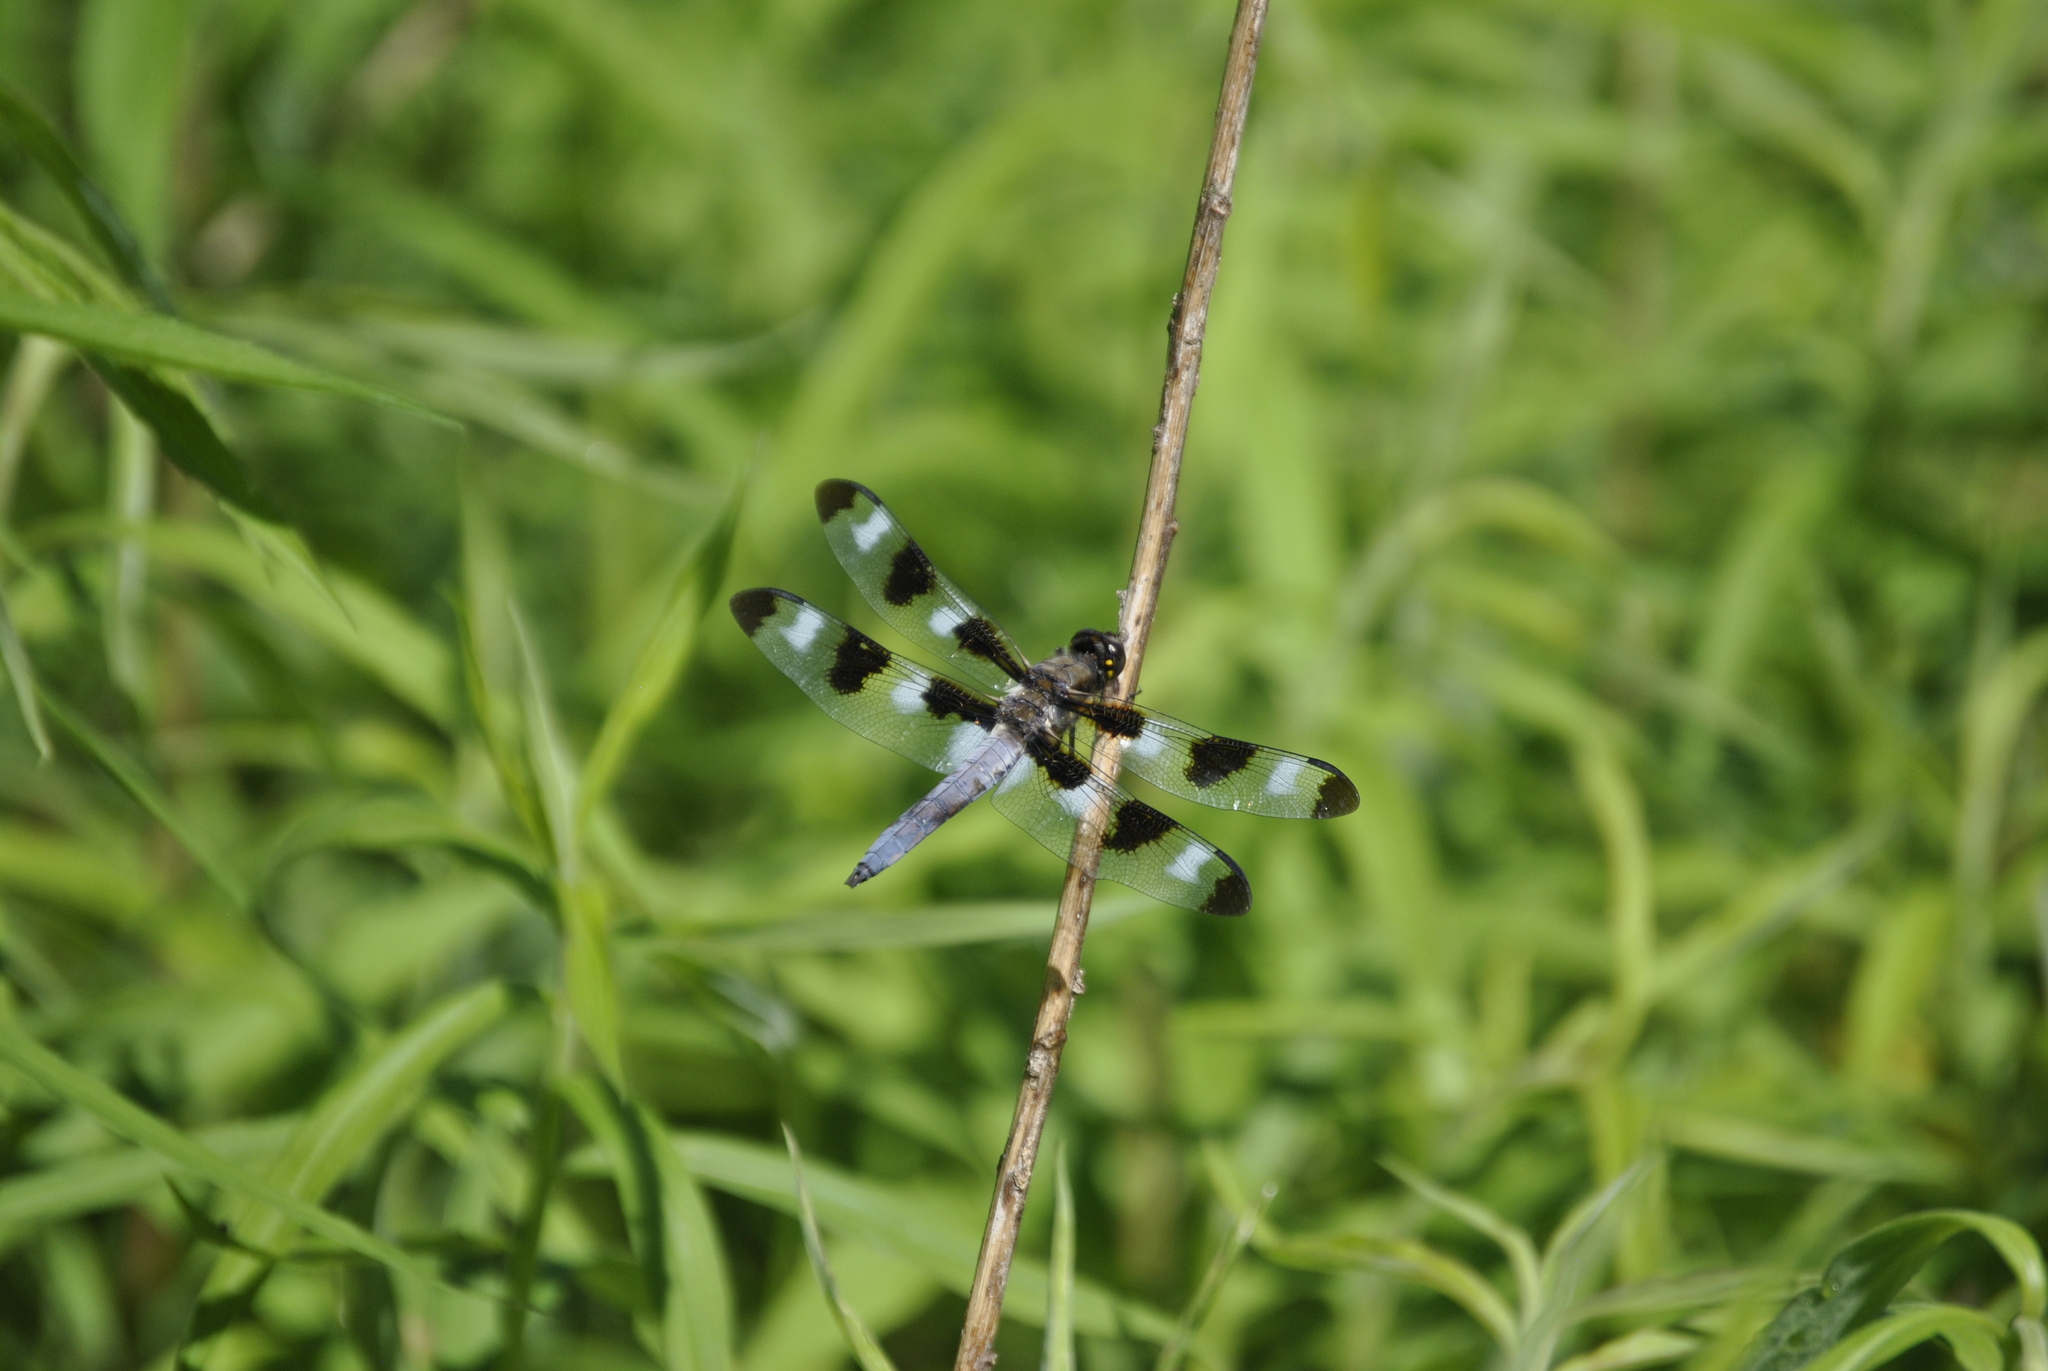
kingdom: Animalia
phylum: Arthropoda
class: Insecta
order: Odonata
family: Libellulidae
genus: Libellula
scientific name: Libellula pulchella
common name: Twelve-spotted skimmer
